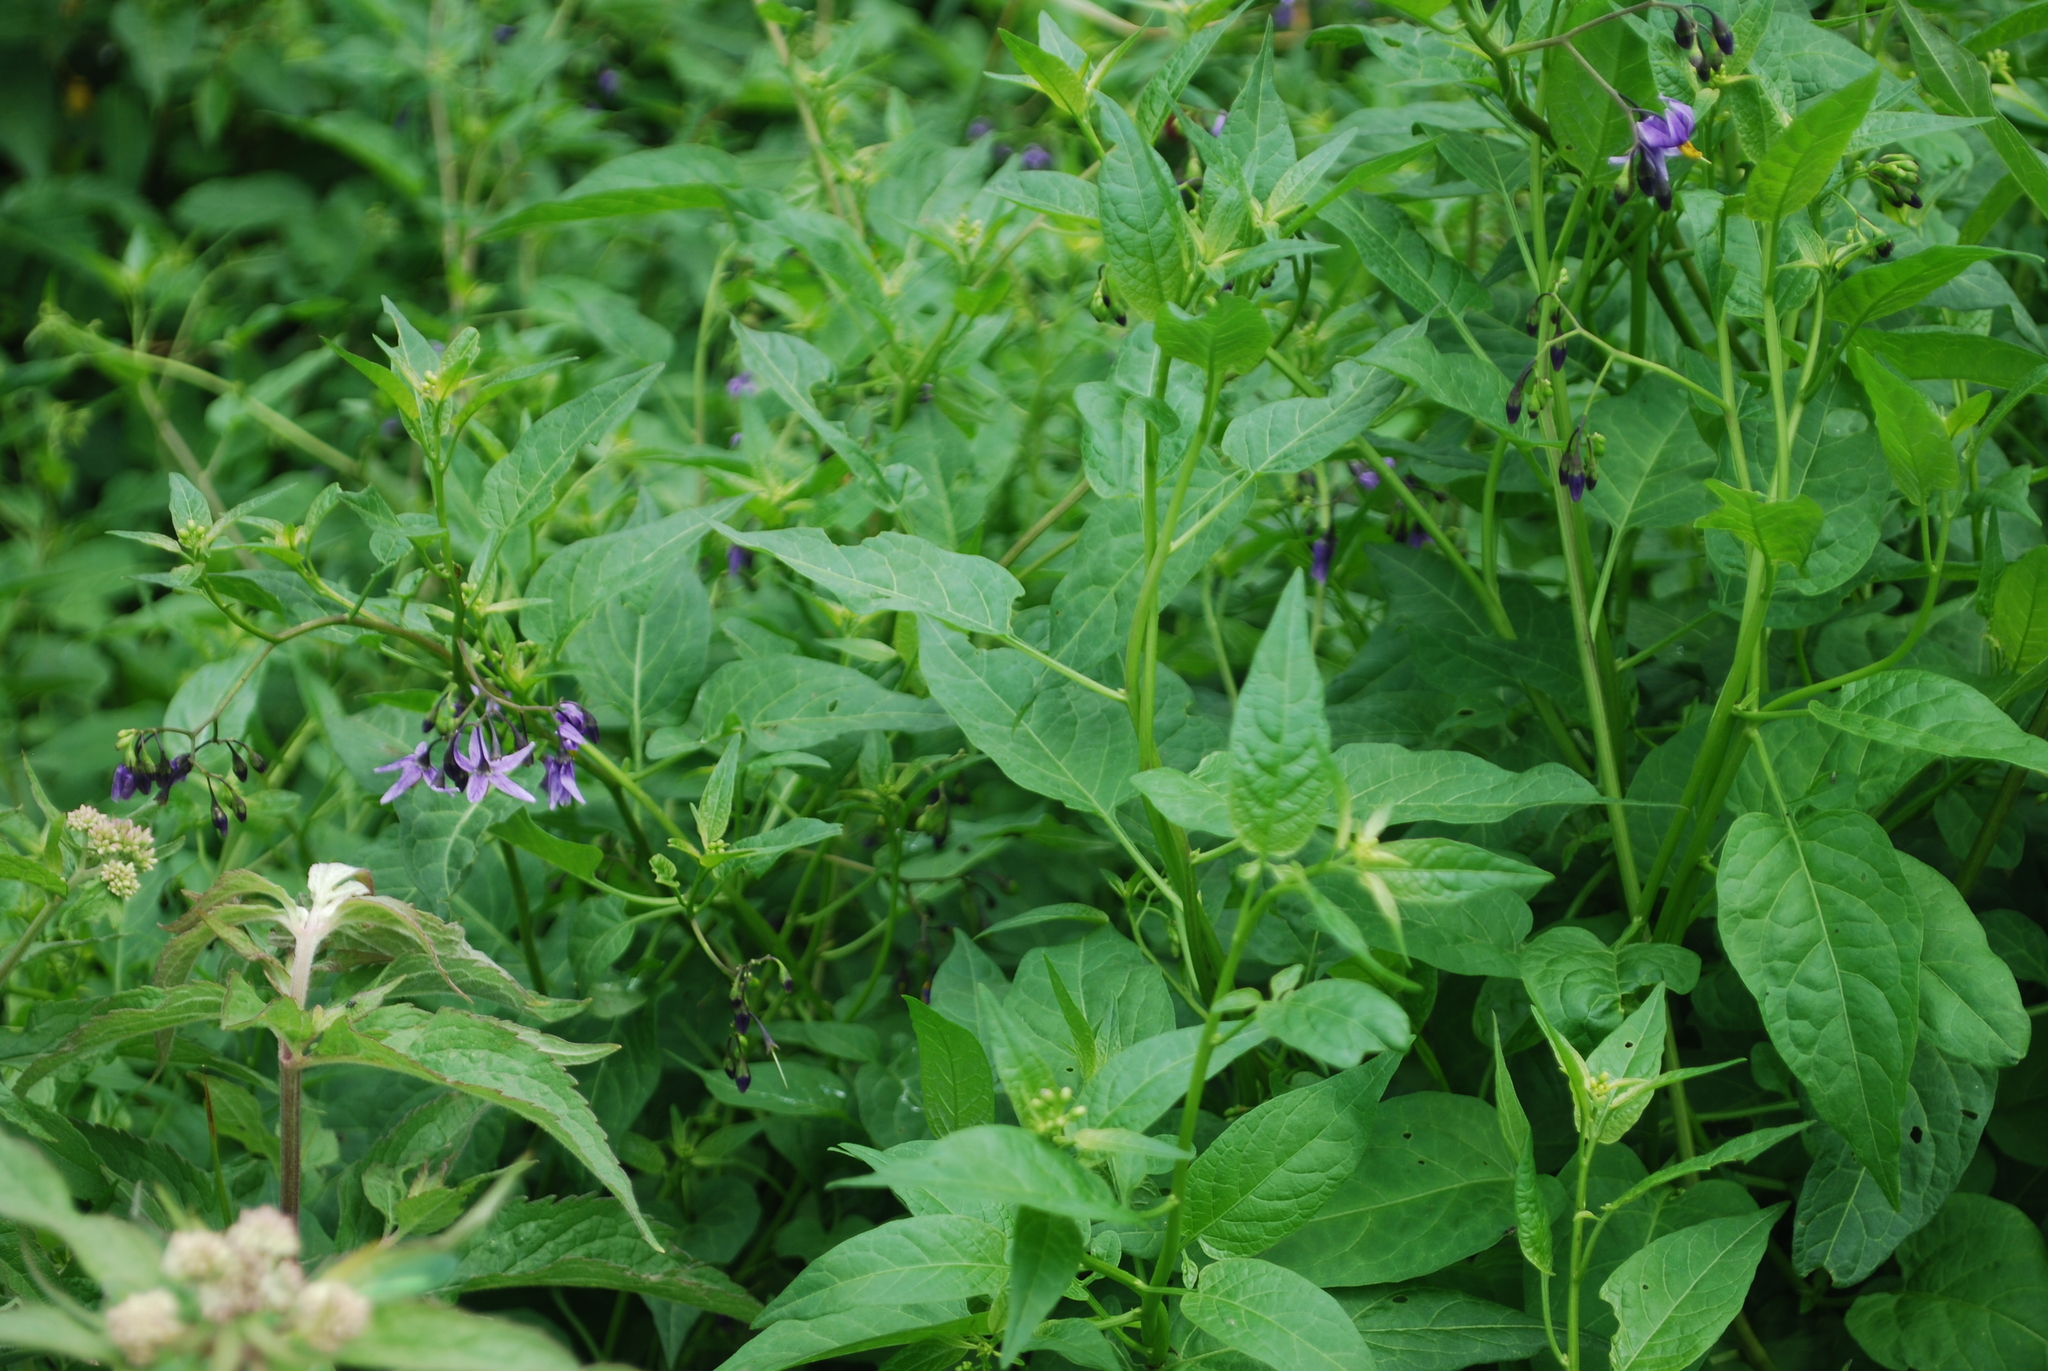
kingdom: Plantae
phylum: Tracheophyta
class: Magnoliopsida
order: Solanales
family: Solanaceae
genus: Solanum
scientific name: Solanum dulcamara
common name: Climbing nightshade
